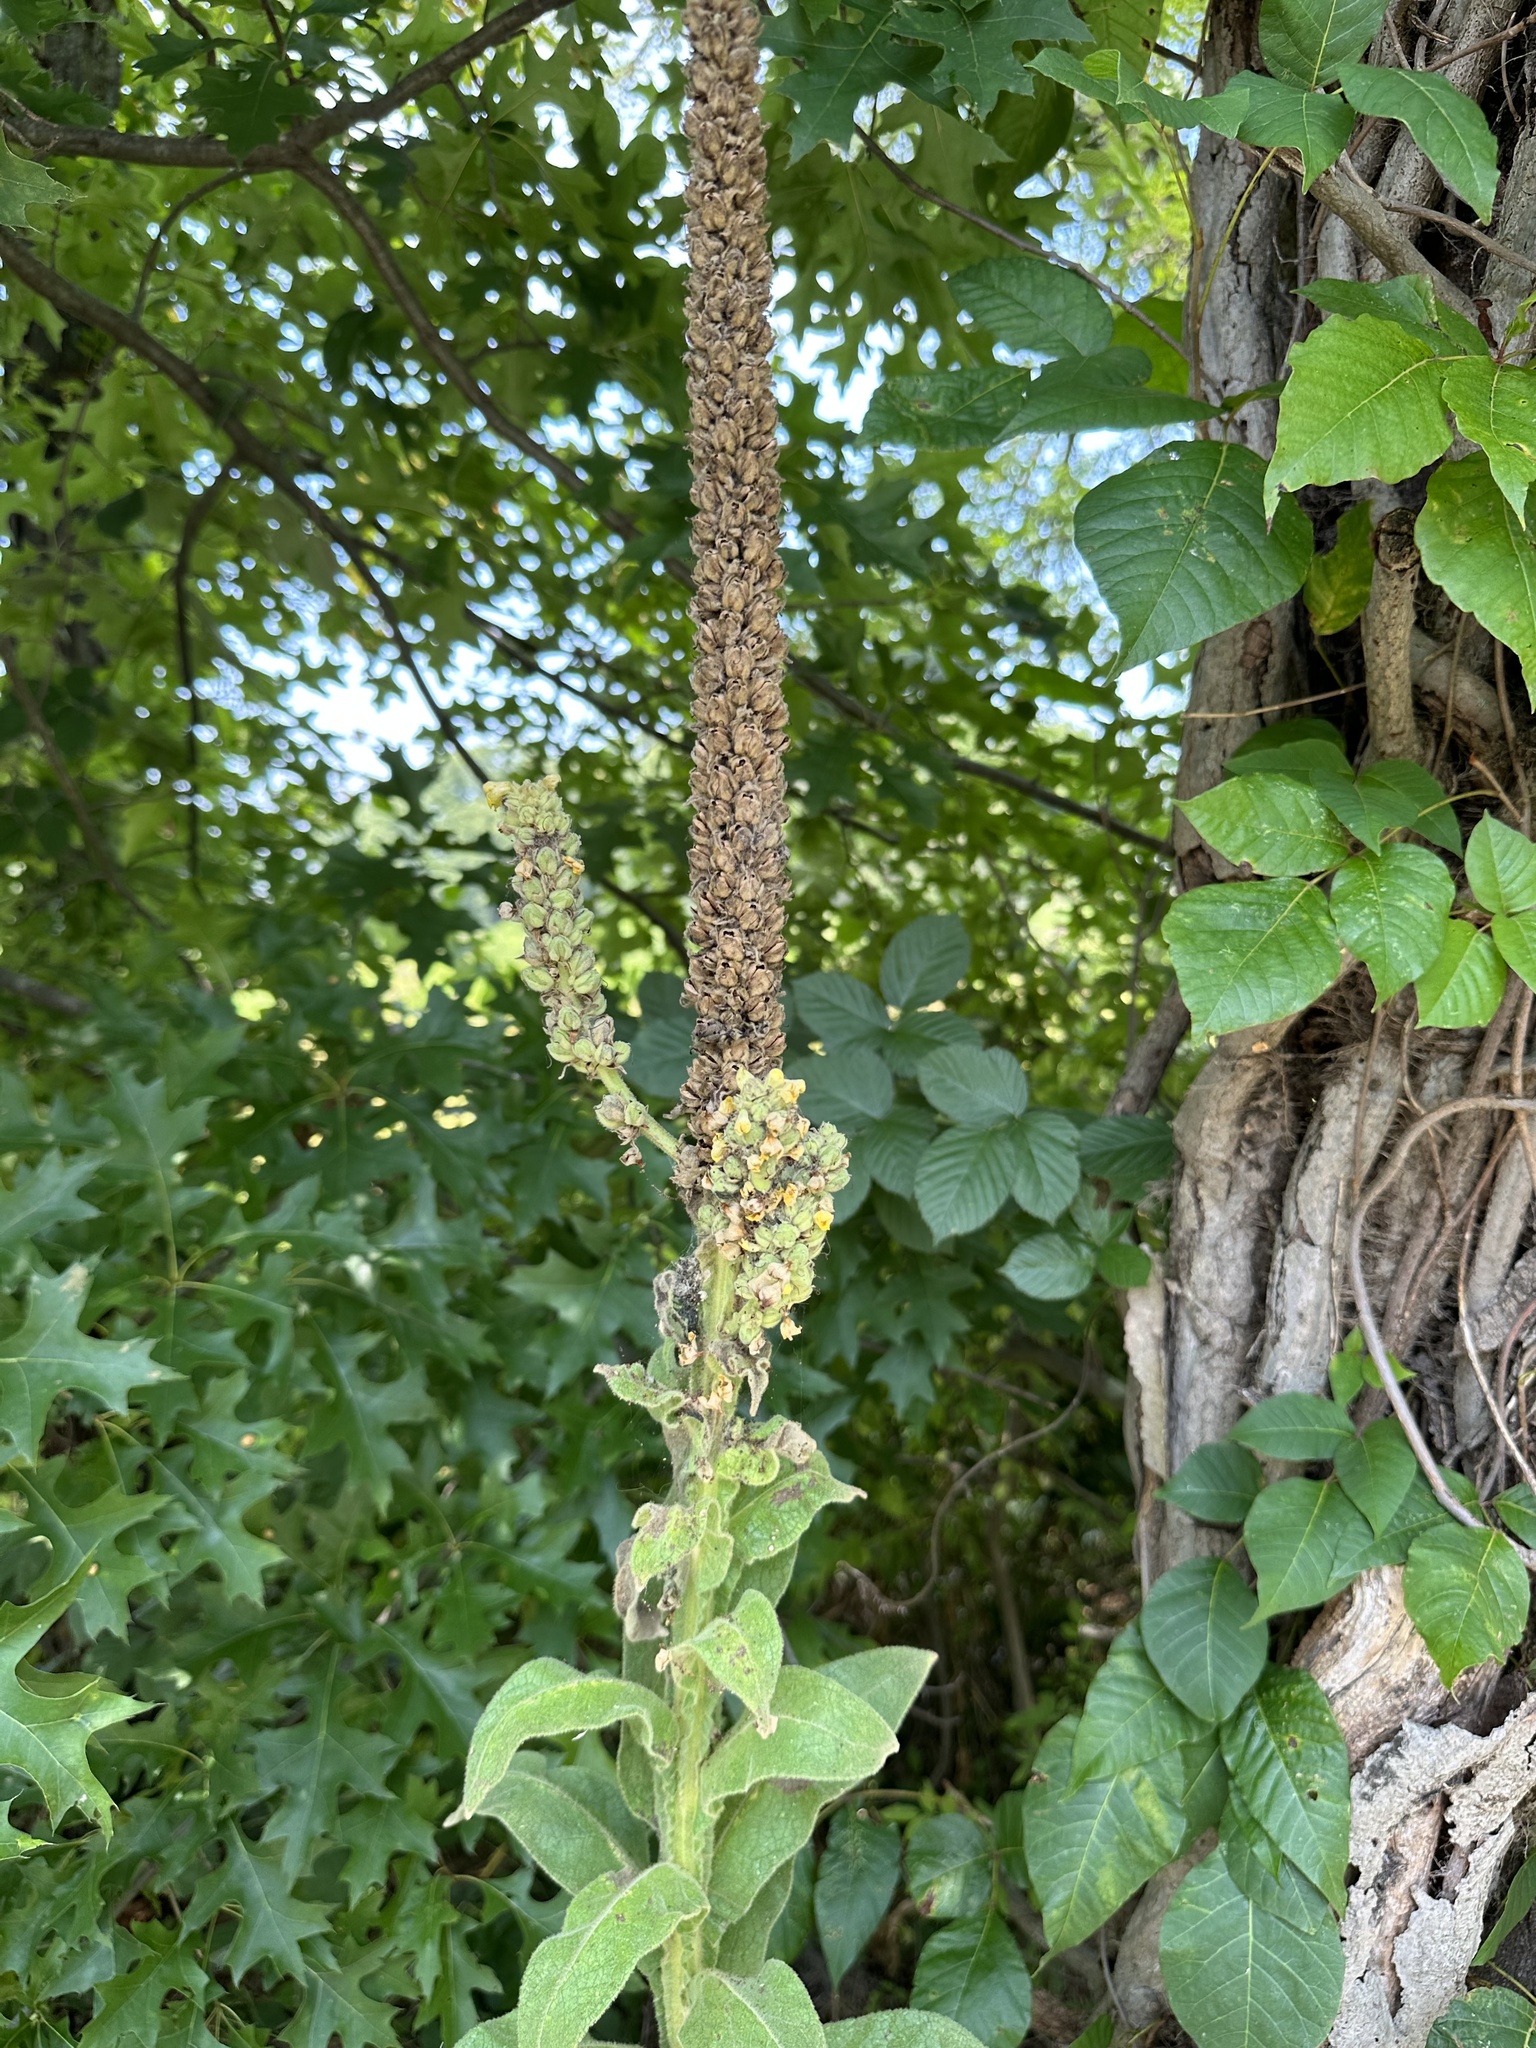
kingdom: Plantae
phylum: Tracheophyta
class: Magnoliopsida
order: Lamiales
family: Scrophulariaceae
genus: Verbascum
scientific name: Verbascum thapsus
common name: Common mullein
